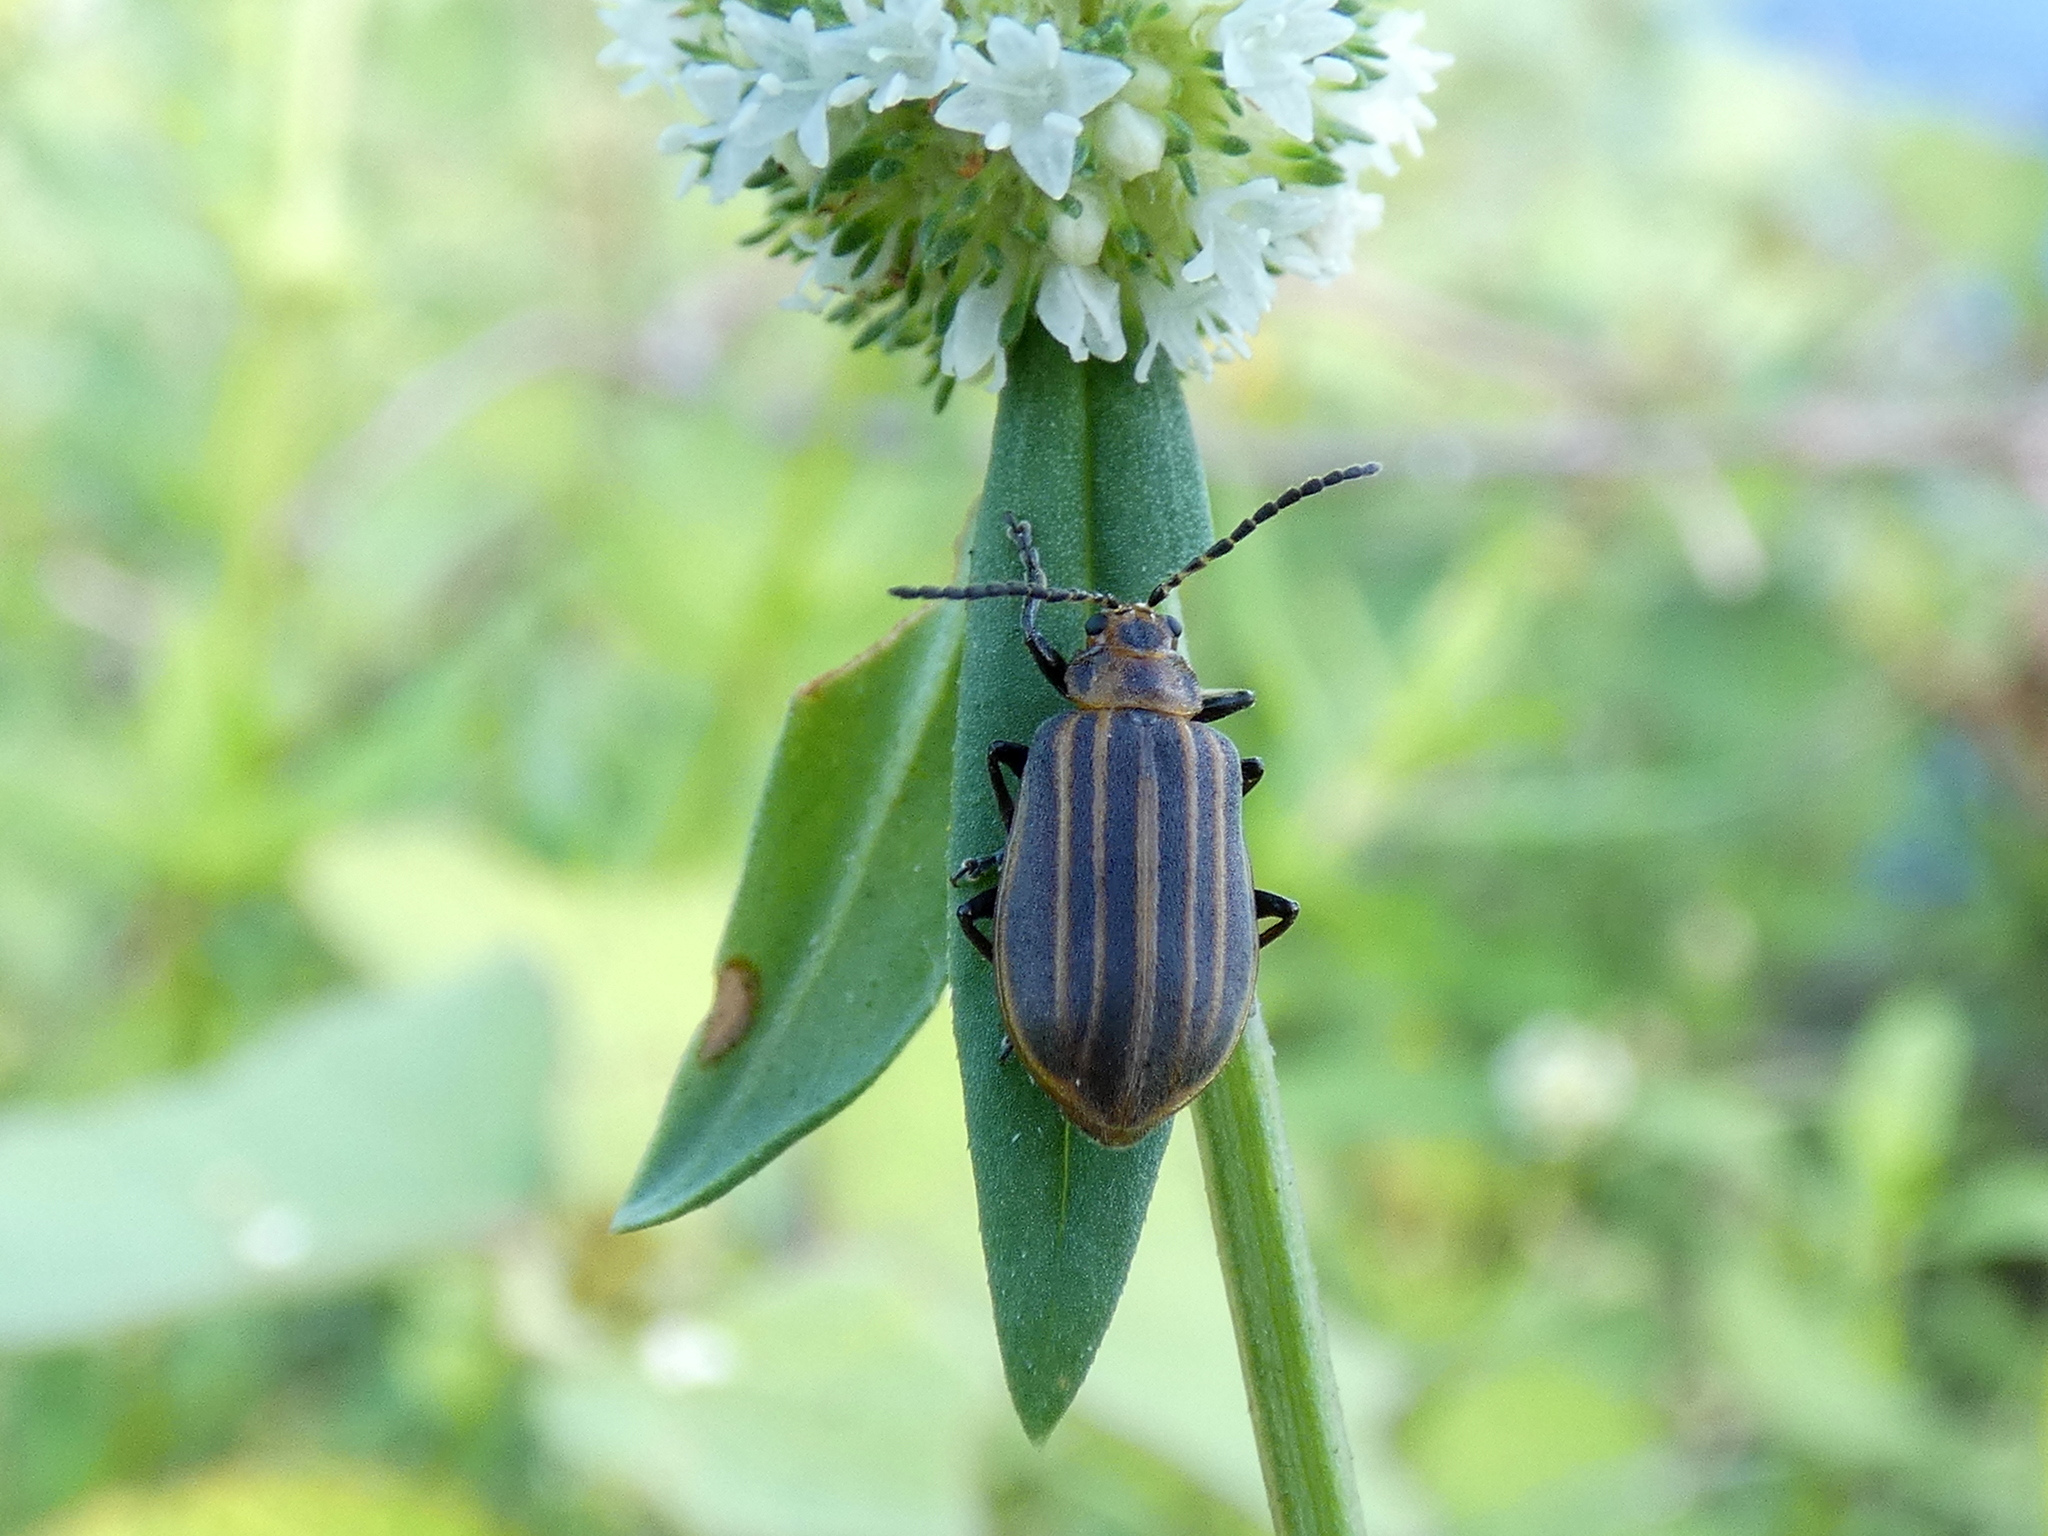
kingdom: Animalia
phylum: Arthropoda
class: Insecta
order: Coleoptera
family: Chrysomelidae
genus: Neolochmaea
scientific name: Neolochmaea dilatipennis
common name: Skeletonizing leaf beetle
